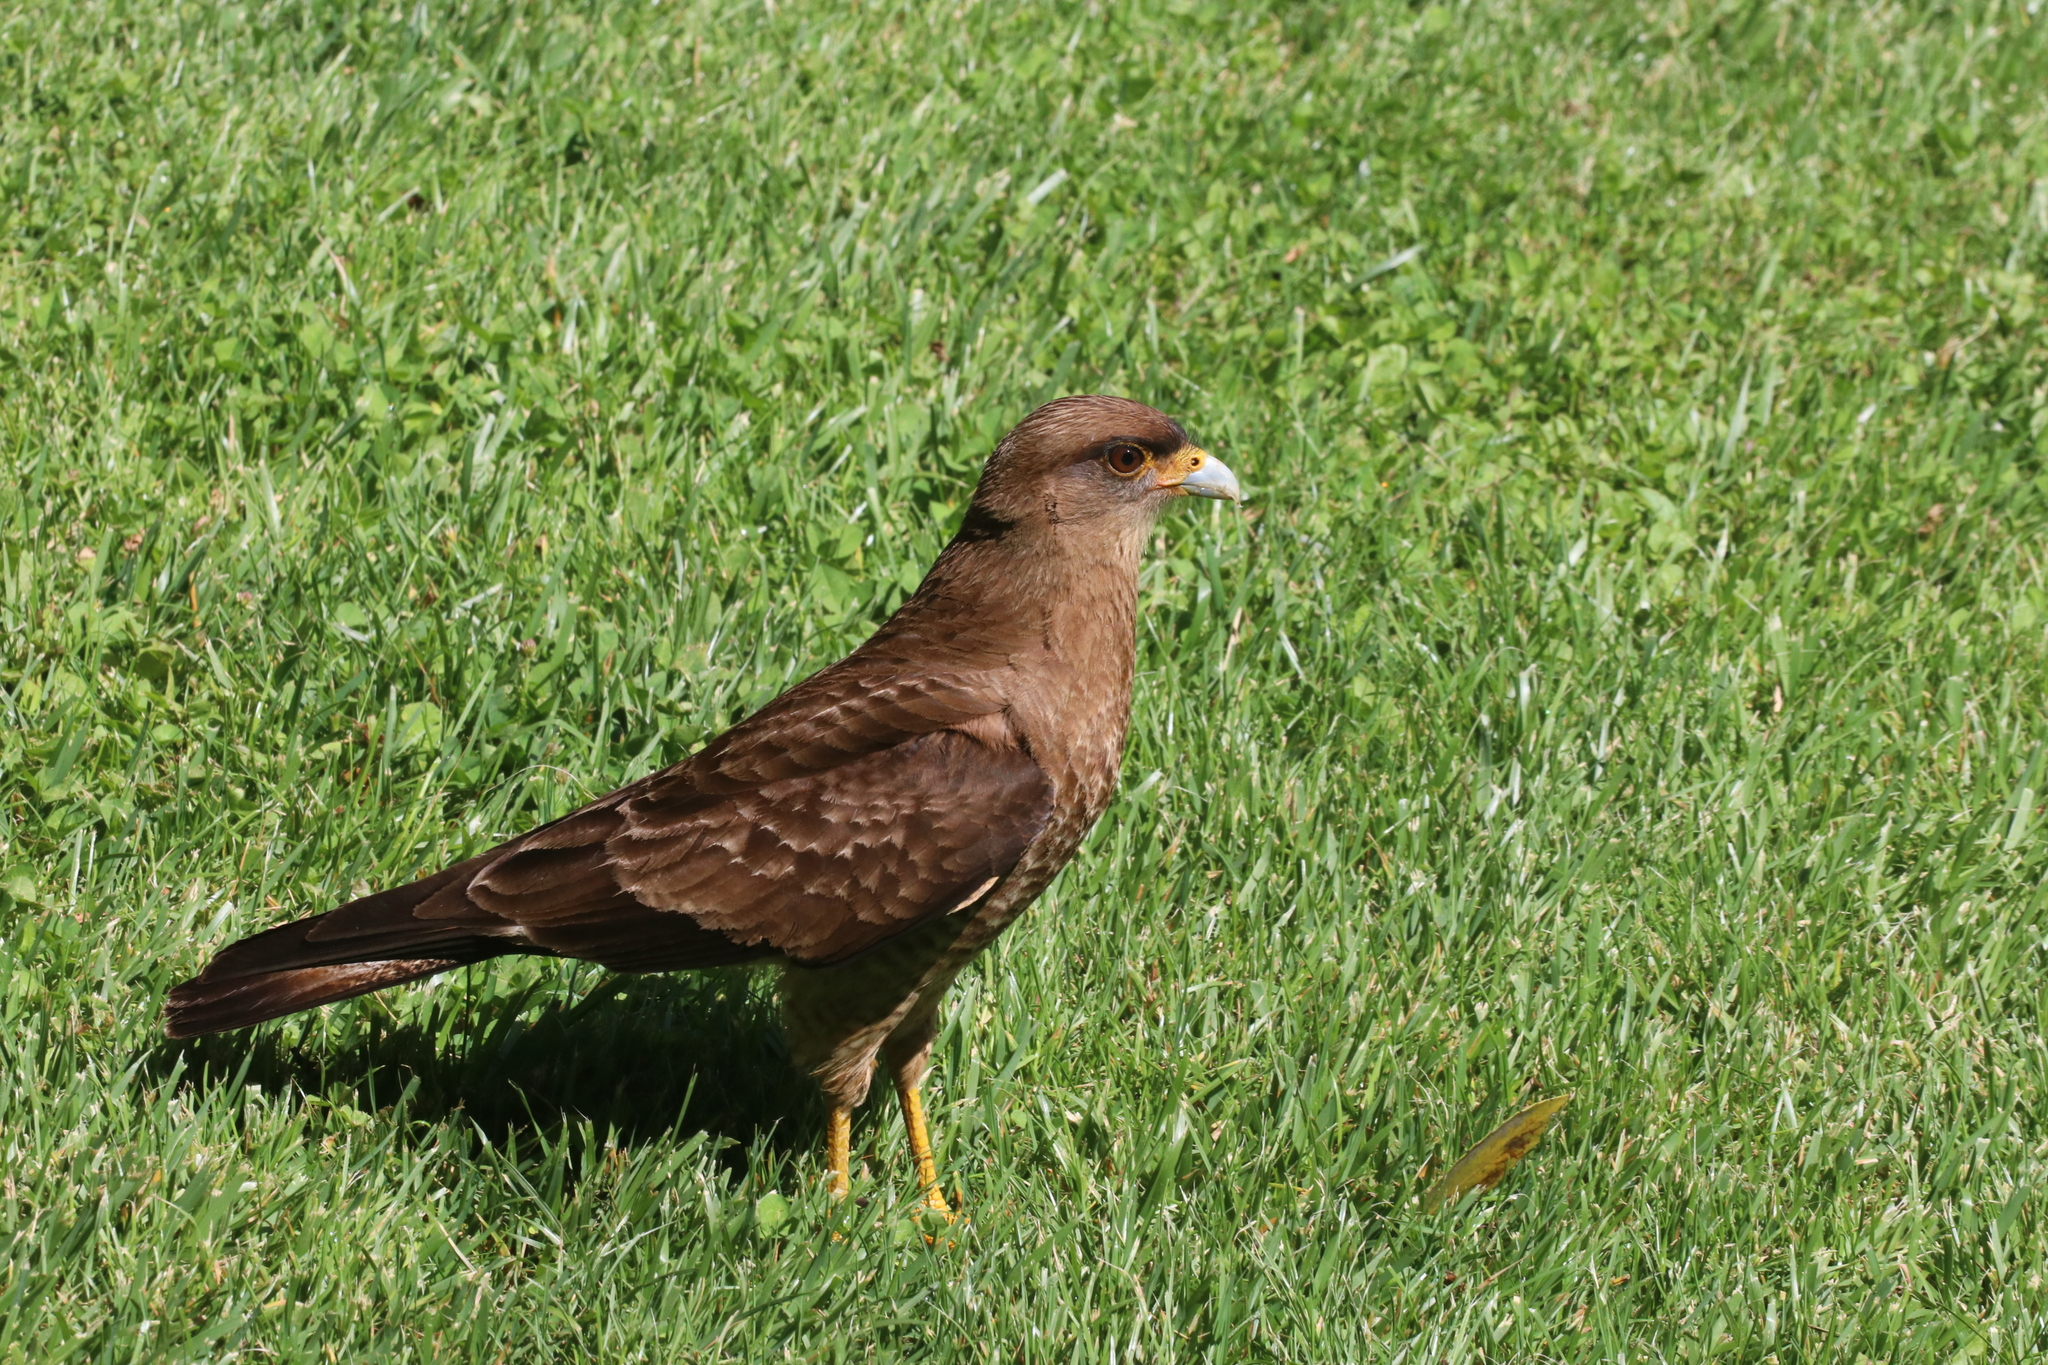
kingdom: Animalia
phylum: Chordata
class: Aves
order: Falconiformes
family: Falconidae
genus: Daptrius
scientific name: Daptrius
